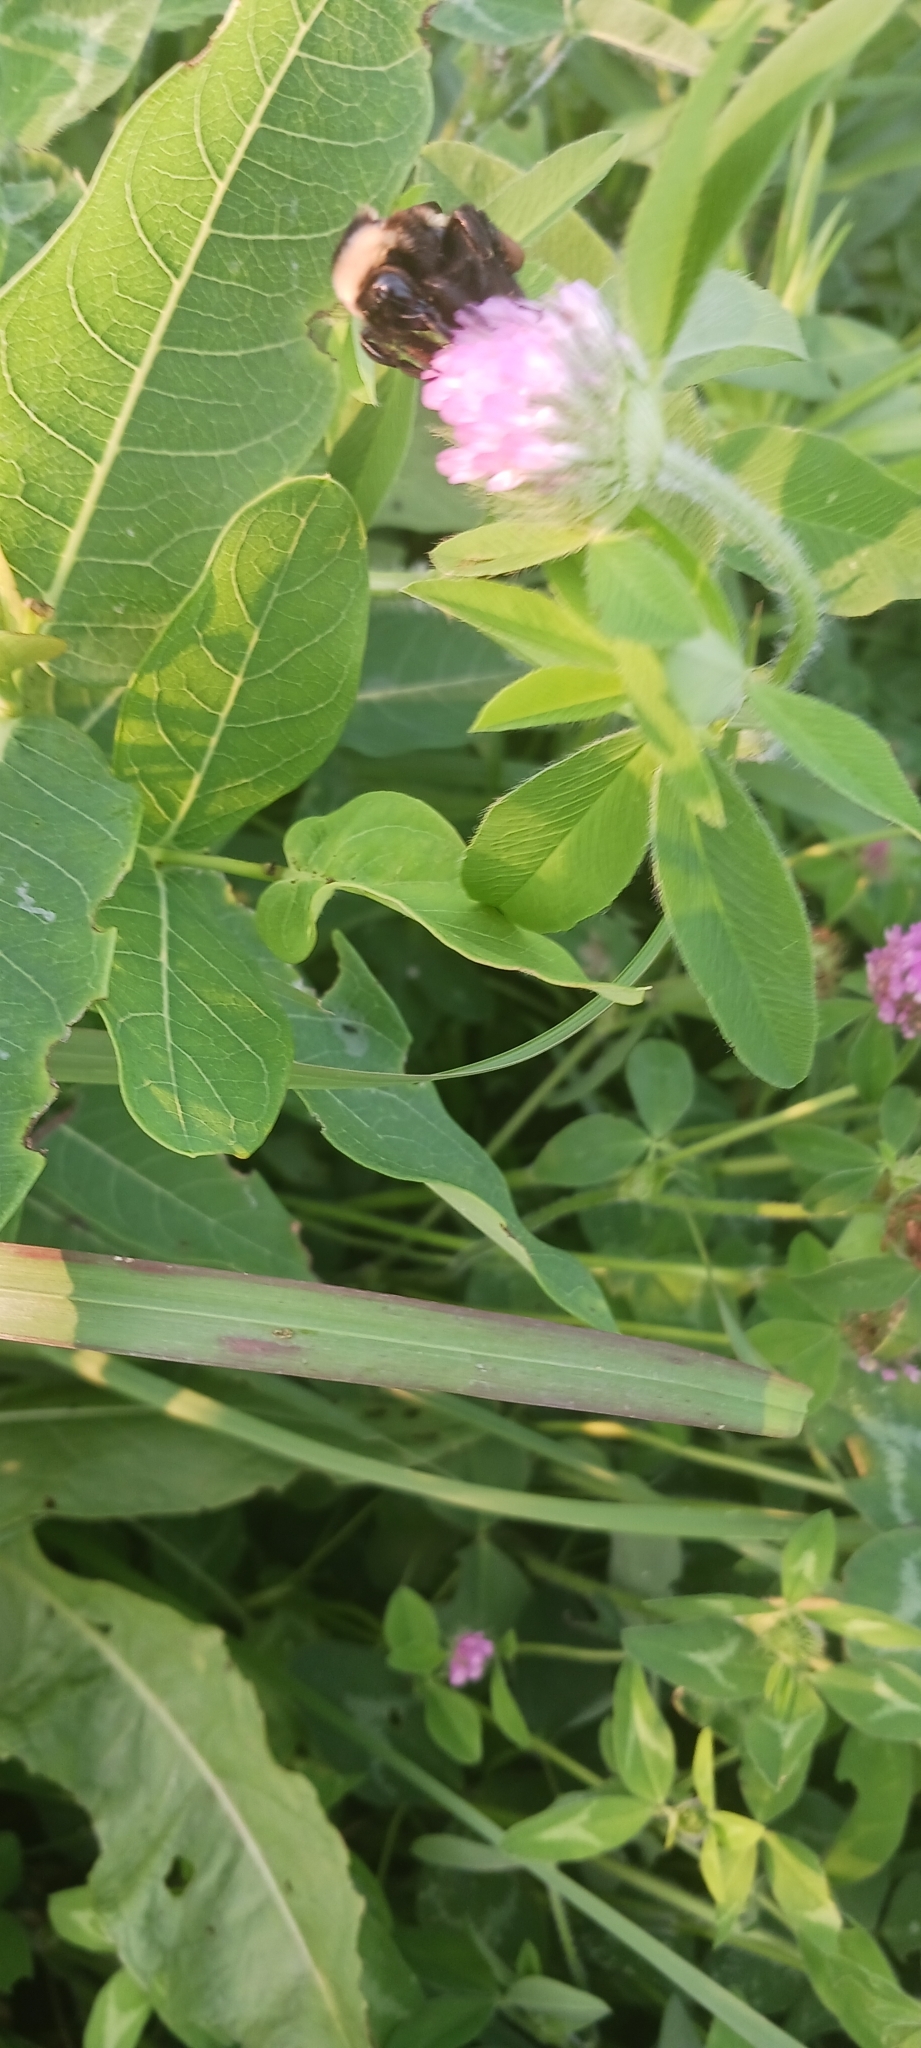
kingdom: Animalia
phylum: Arthropoda
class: Insecta
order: Hymenoptera
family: Apidae
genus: Bombus
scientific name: Bombus pensylvanicus
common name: Bumble bee
